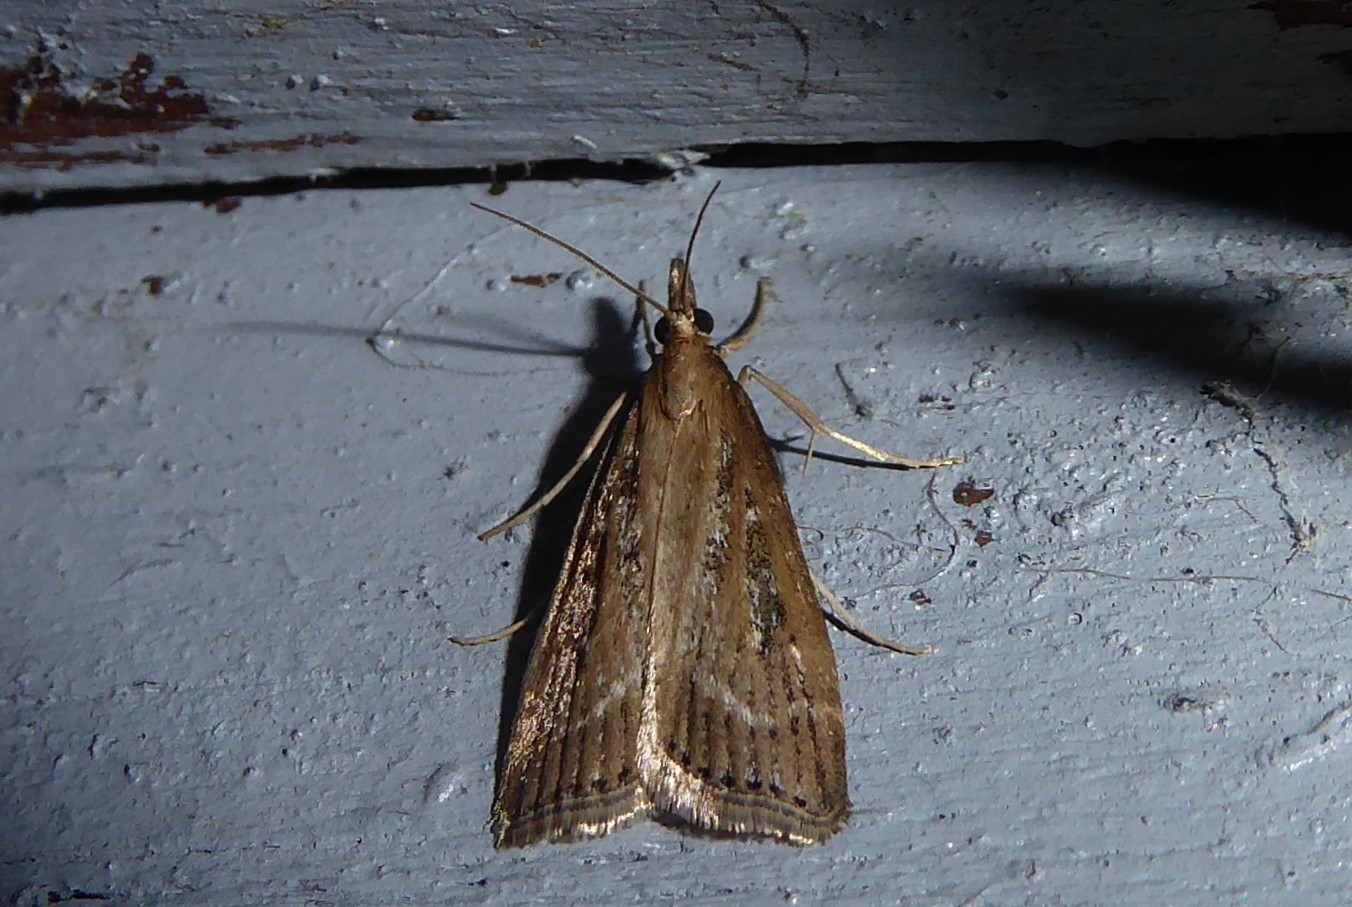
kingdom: Animalia
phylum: Arthropoda
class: Insecta
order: Lepidoptera
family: Crambidae
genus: Eudonia
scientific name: Eudonia octophora
